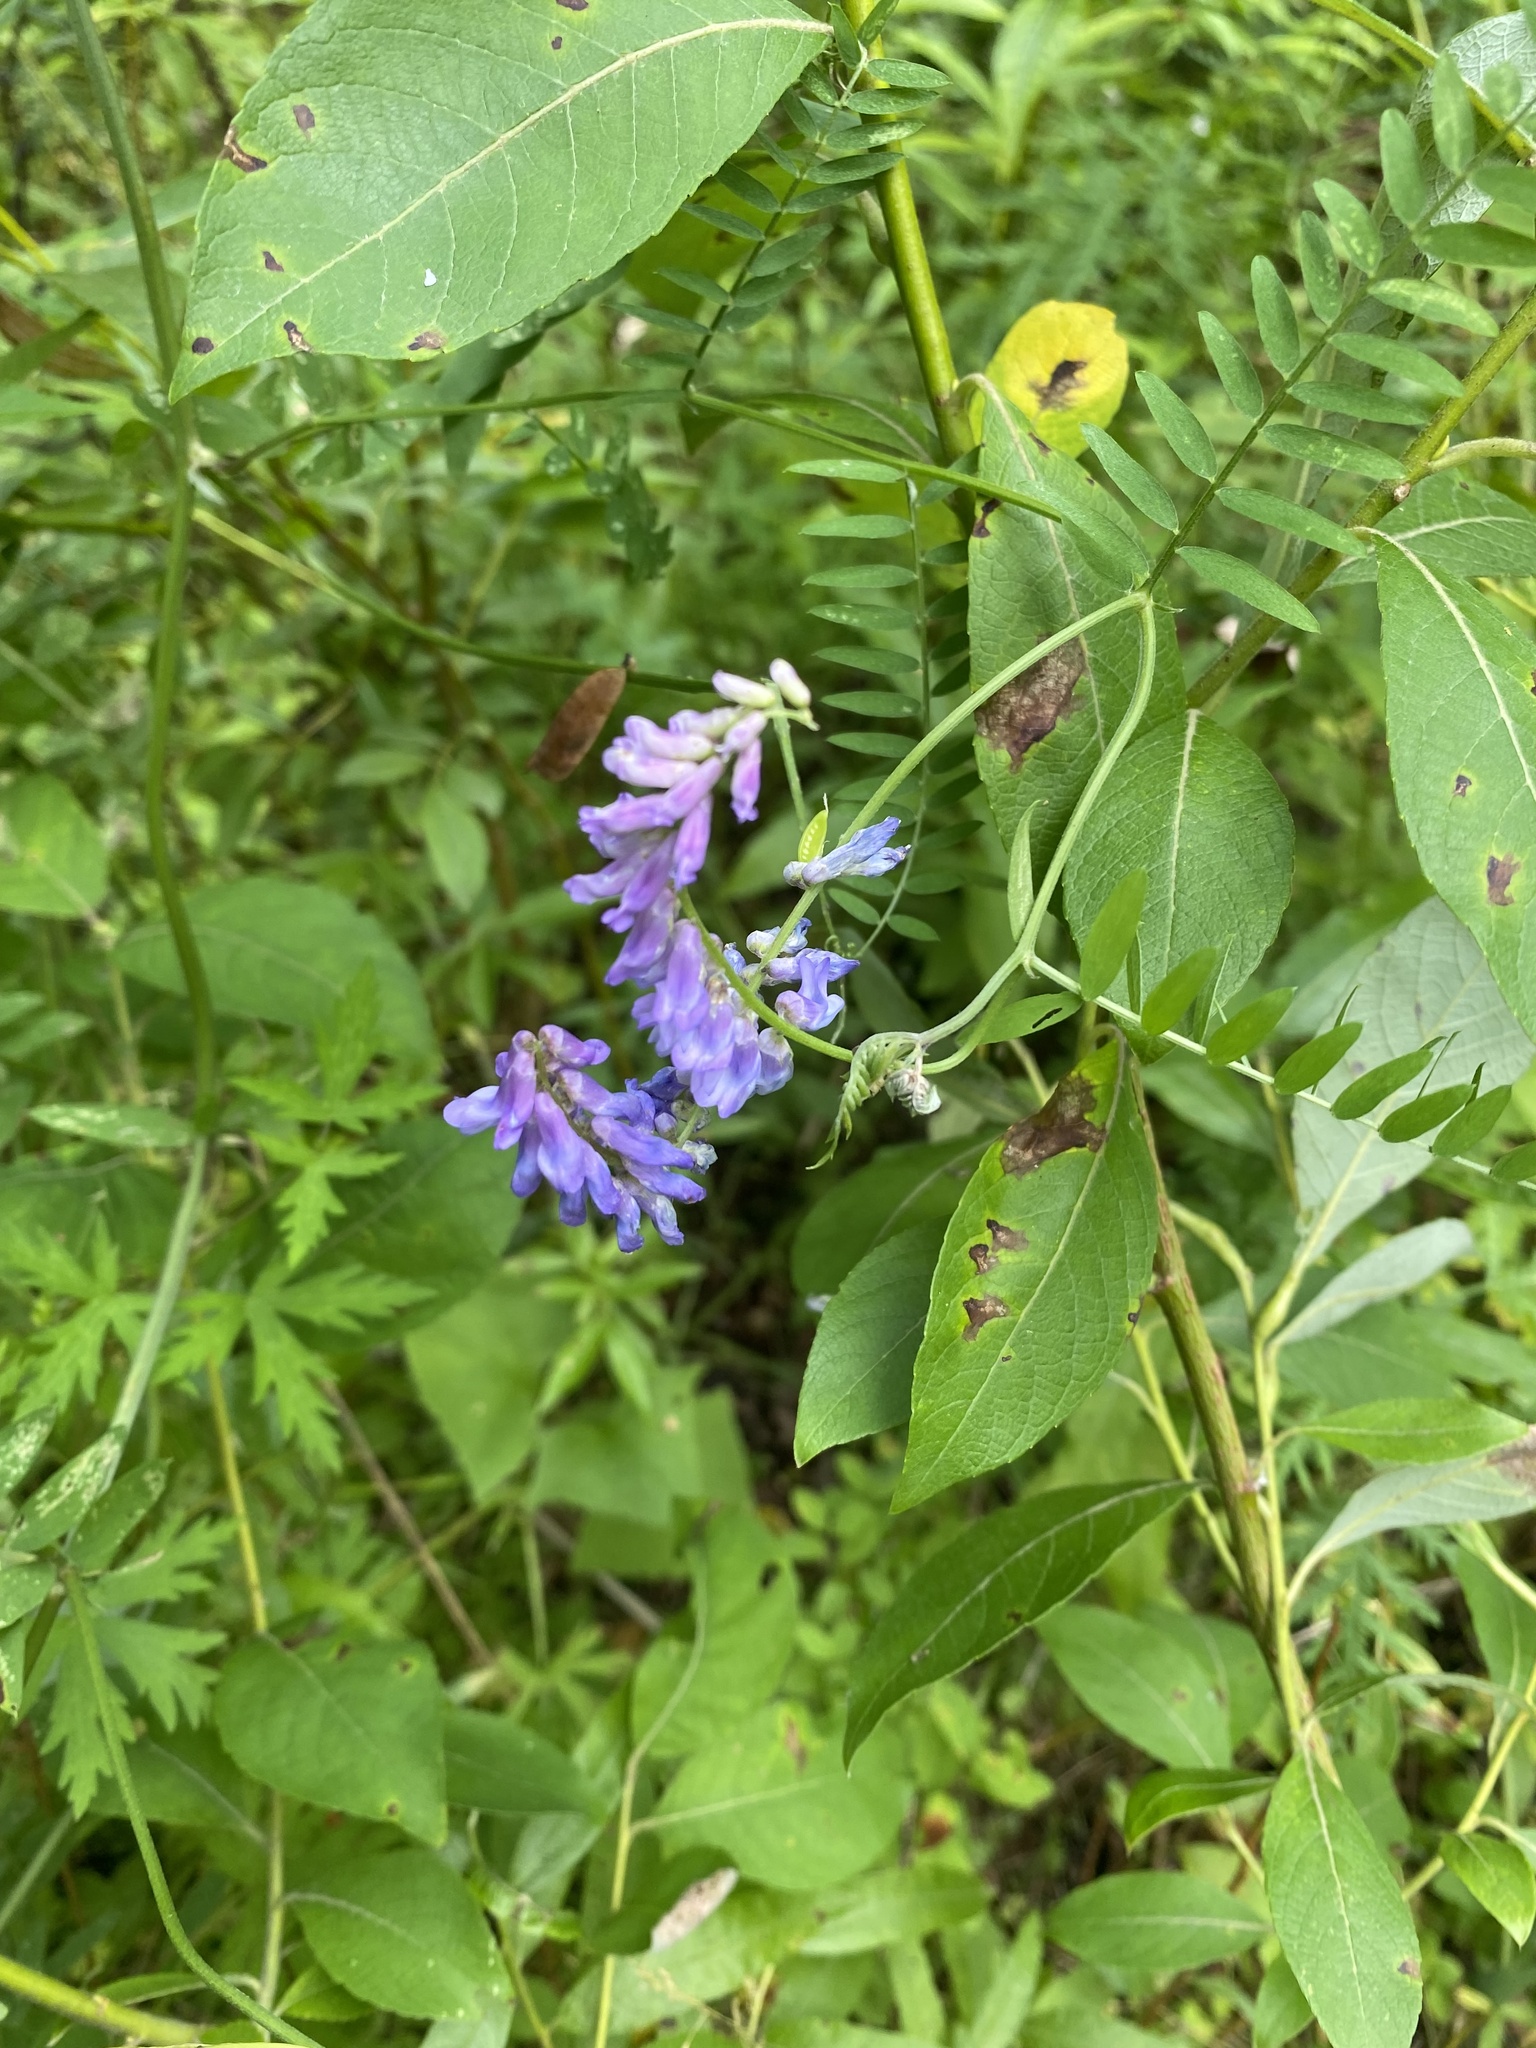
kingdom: Plantae
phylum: Tracheophyta
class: Magnoliopsida
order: Fabales
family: Fabaceae
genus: Vicia
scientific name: Vicia cracca
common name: Bird vetch
